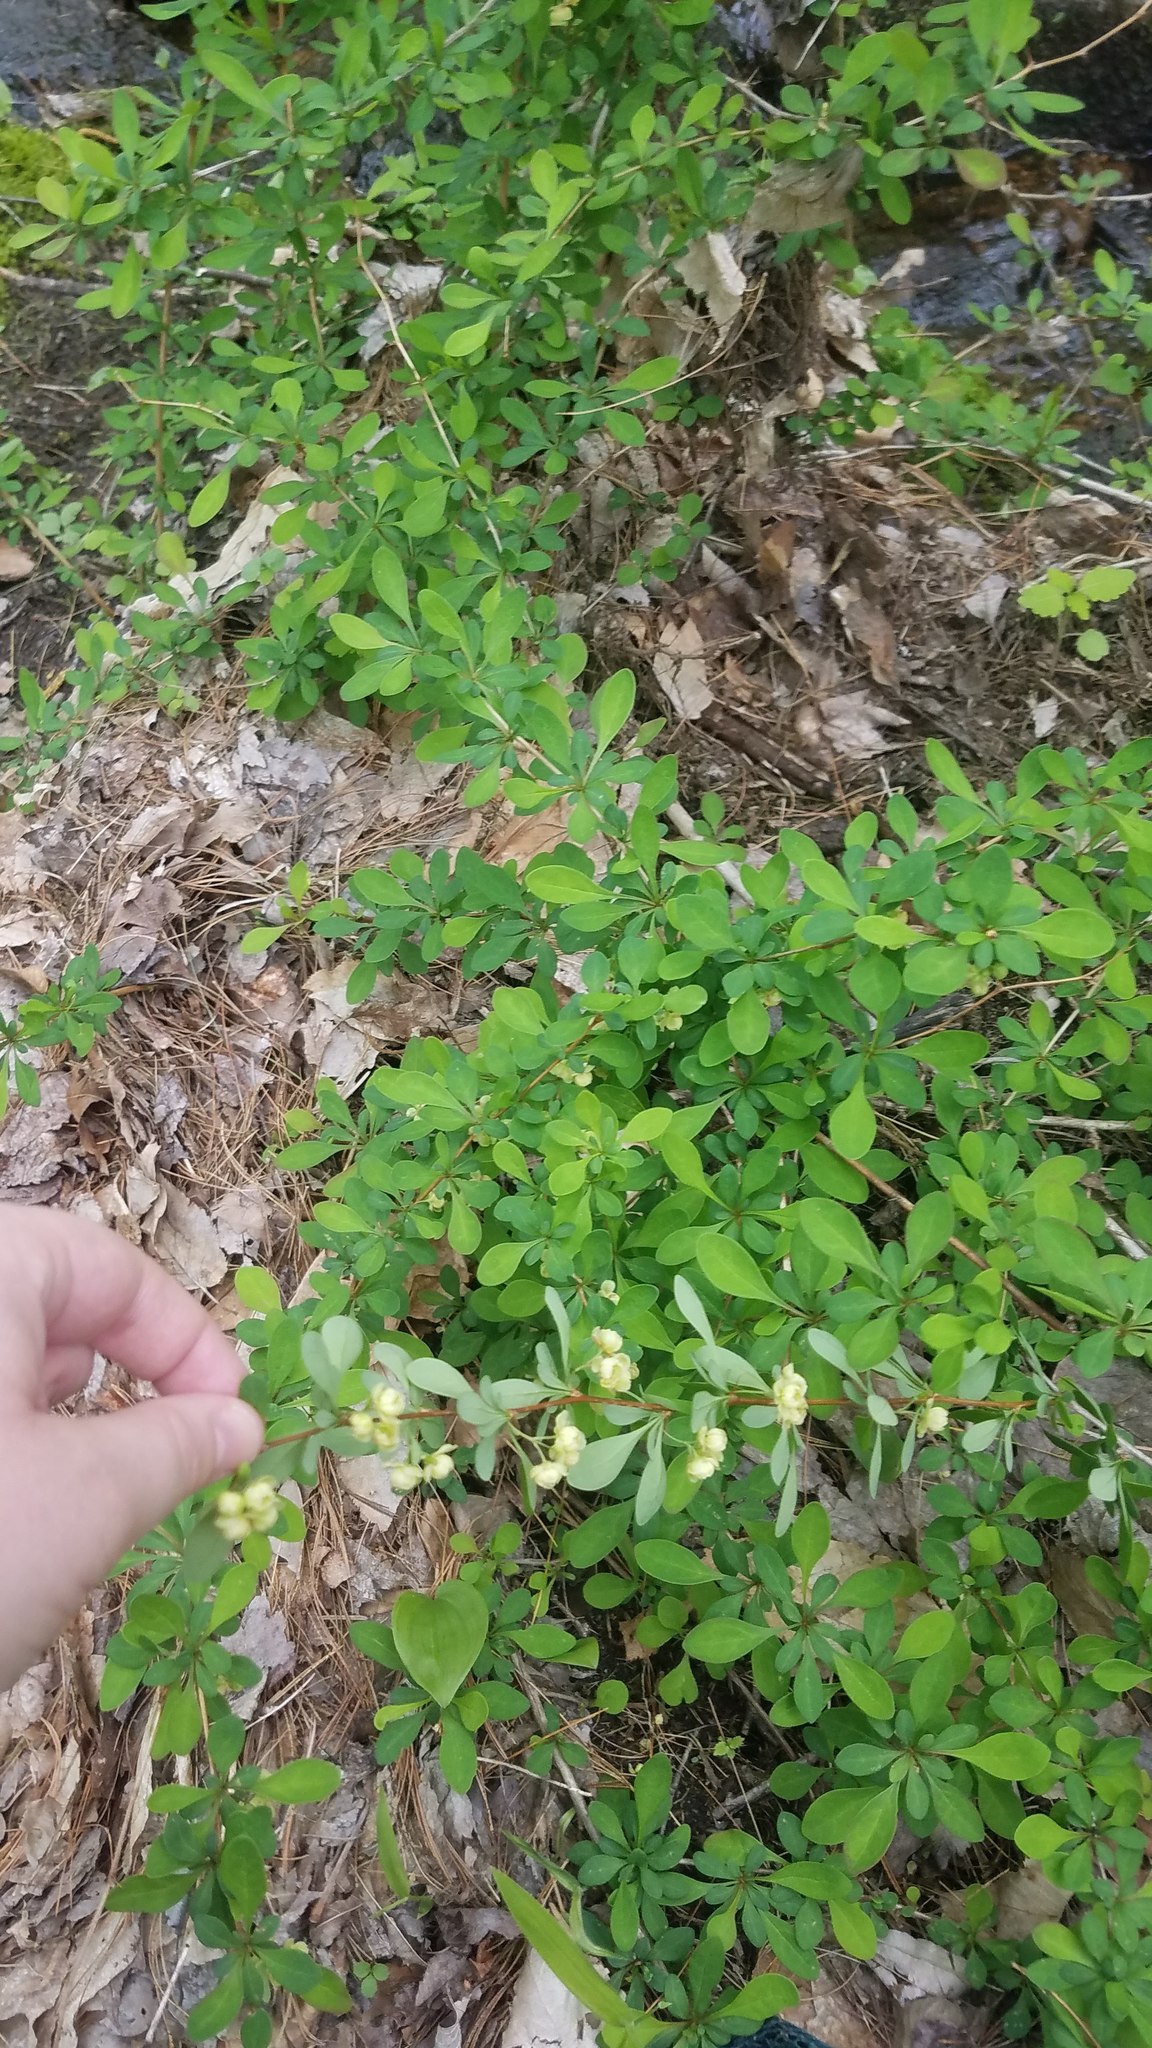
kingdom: Plantae
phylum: Tracheophyta
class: Magnoliopsida
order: Ranunculales
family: Berberidaceae
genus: Berberis
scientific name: Berberis thunbergii
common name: Japanese barberry
